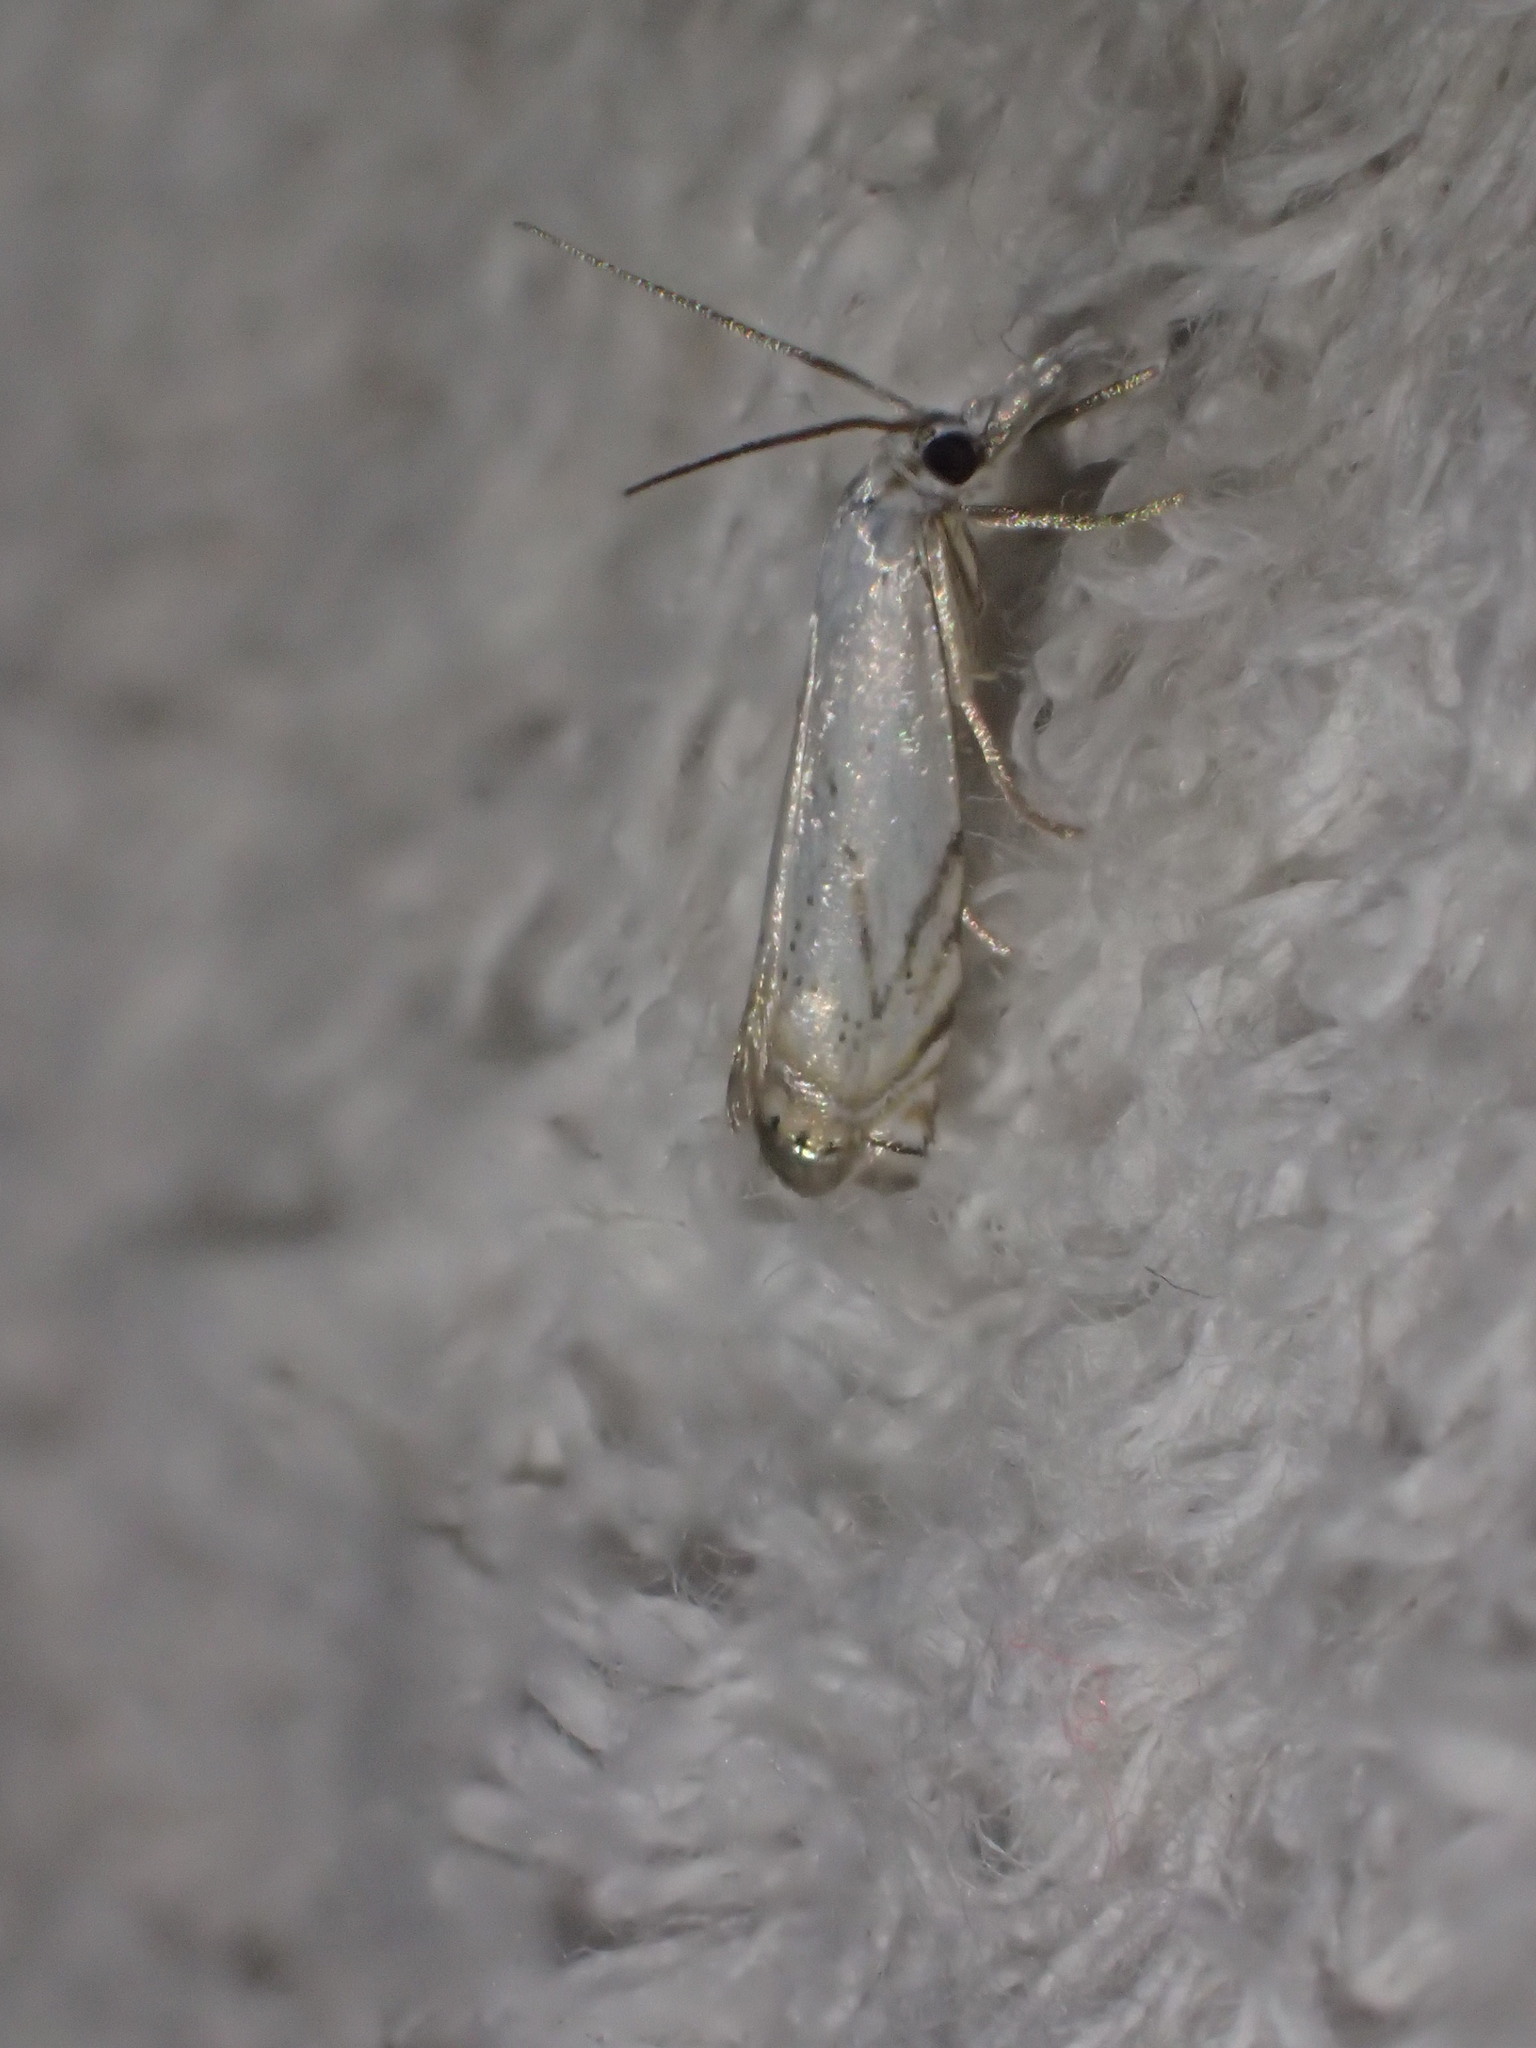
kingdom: Animalia
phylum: Arthropoda
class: Insecta
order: Lepidoptera
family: Crambidae
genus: Crambus
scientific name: Crambus albellus
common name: Small white grass-veneer
